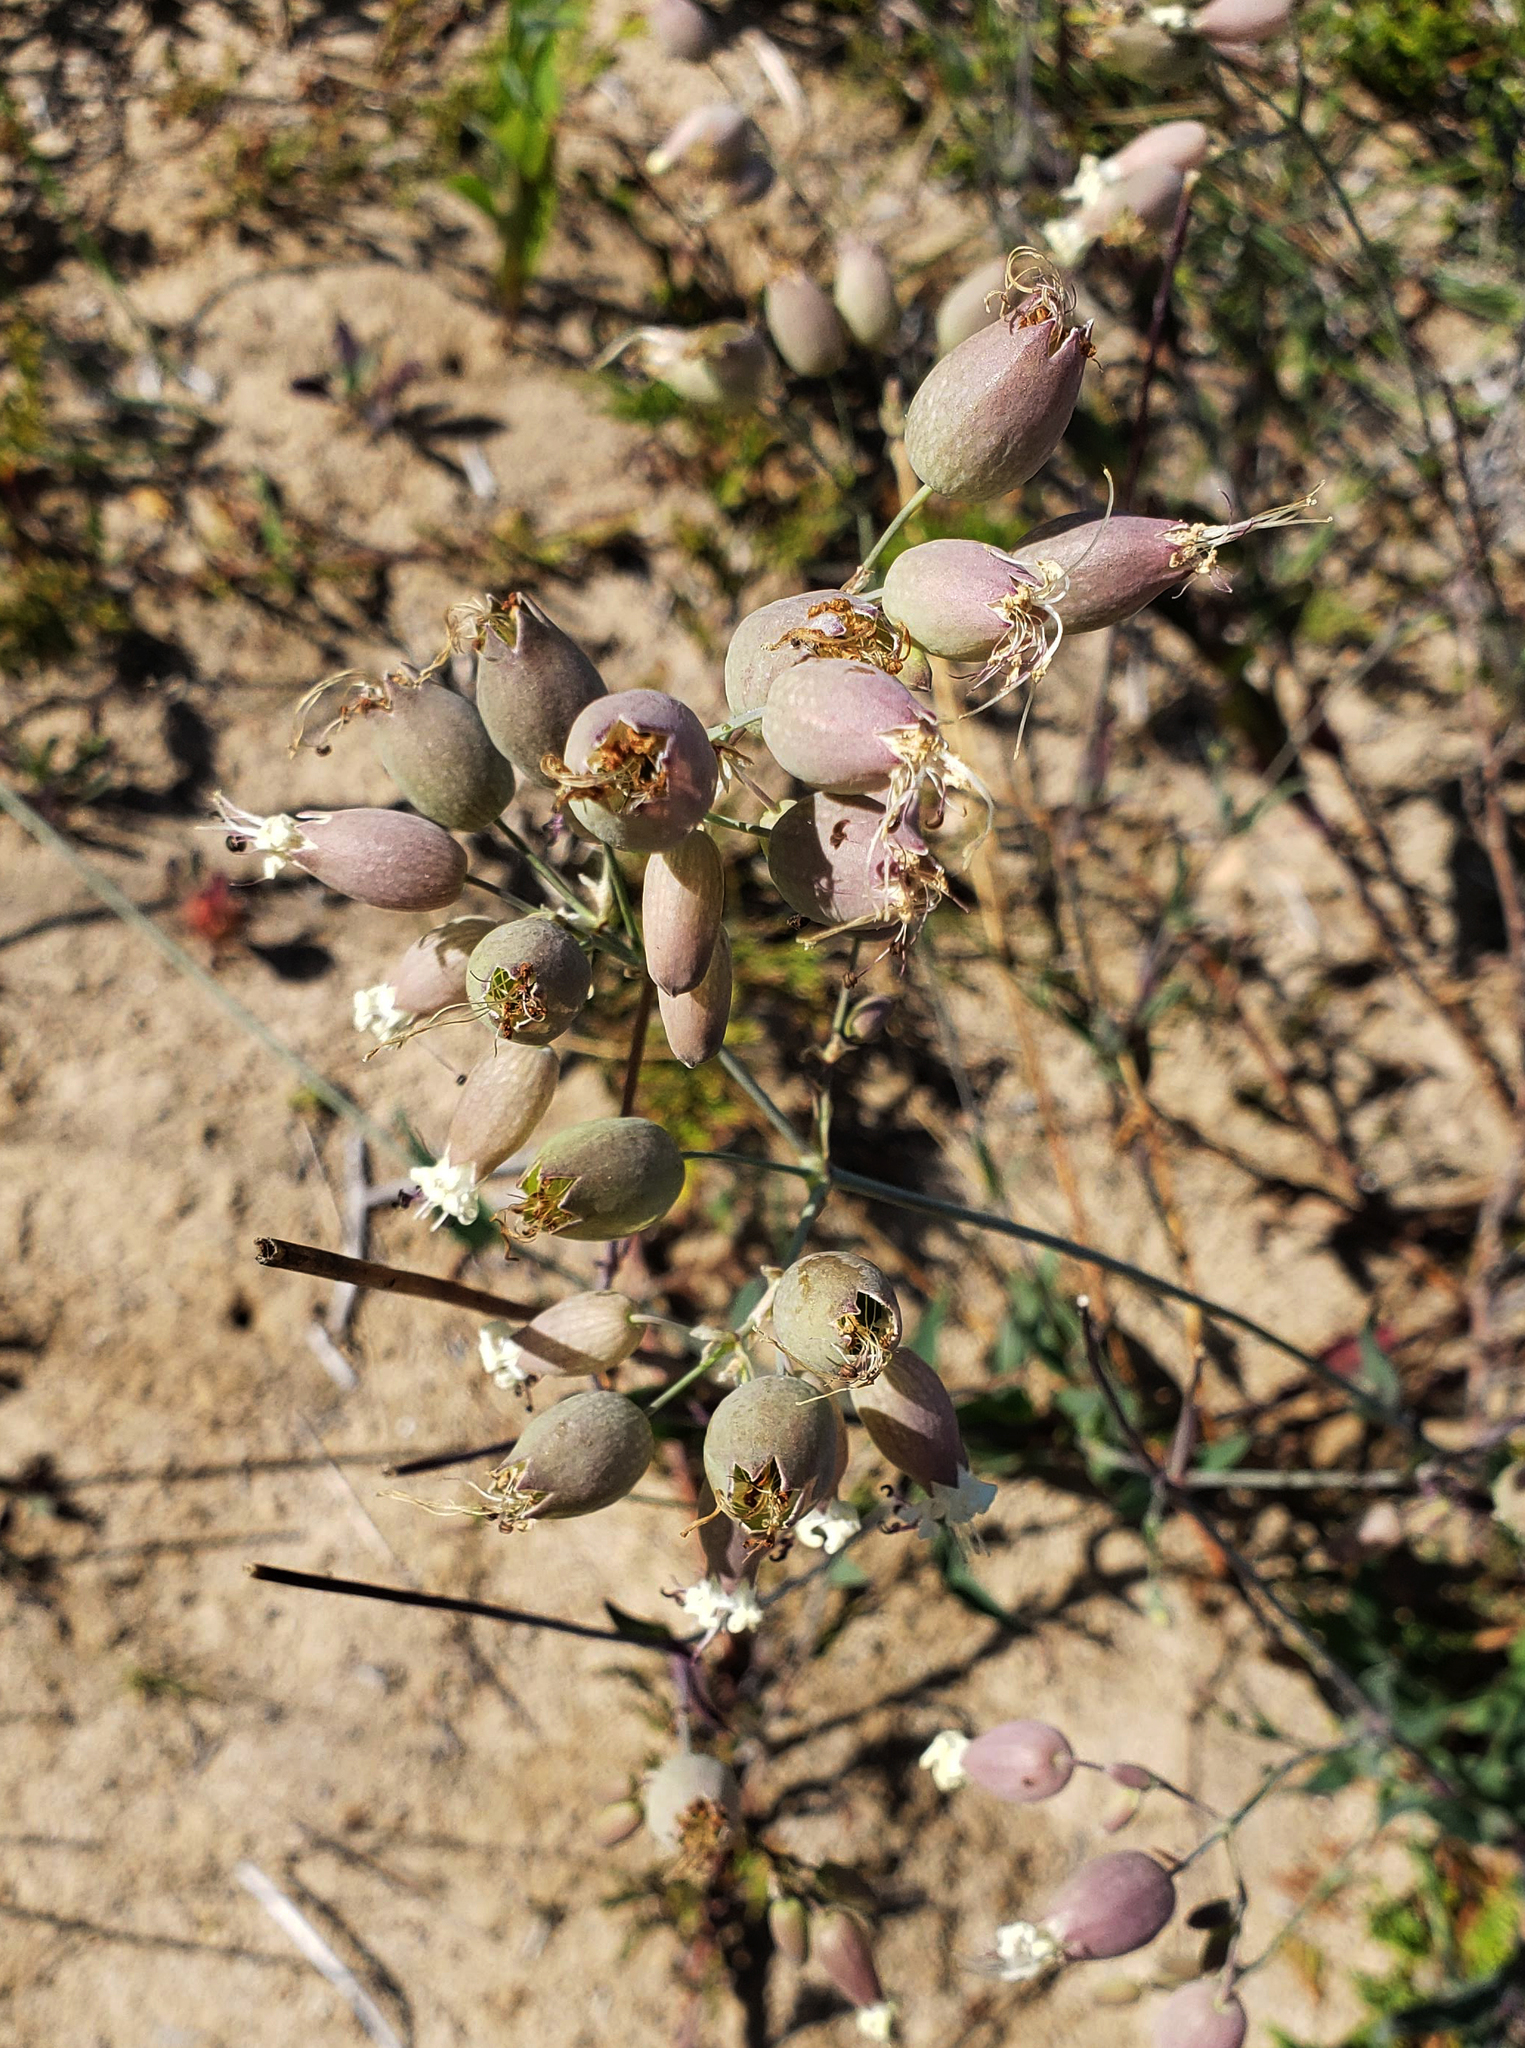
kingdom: Plantae
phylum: Tracheophyta
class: Magnoliopsida
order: Caryophyllales
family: Caryophyllaceae
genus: Silene
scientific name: Silene vulgaris
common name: Bladder campion
